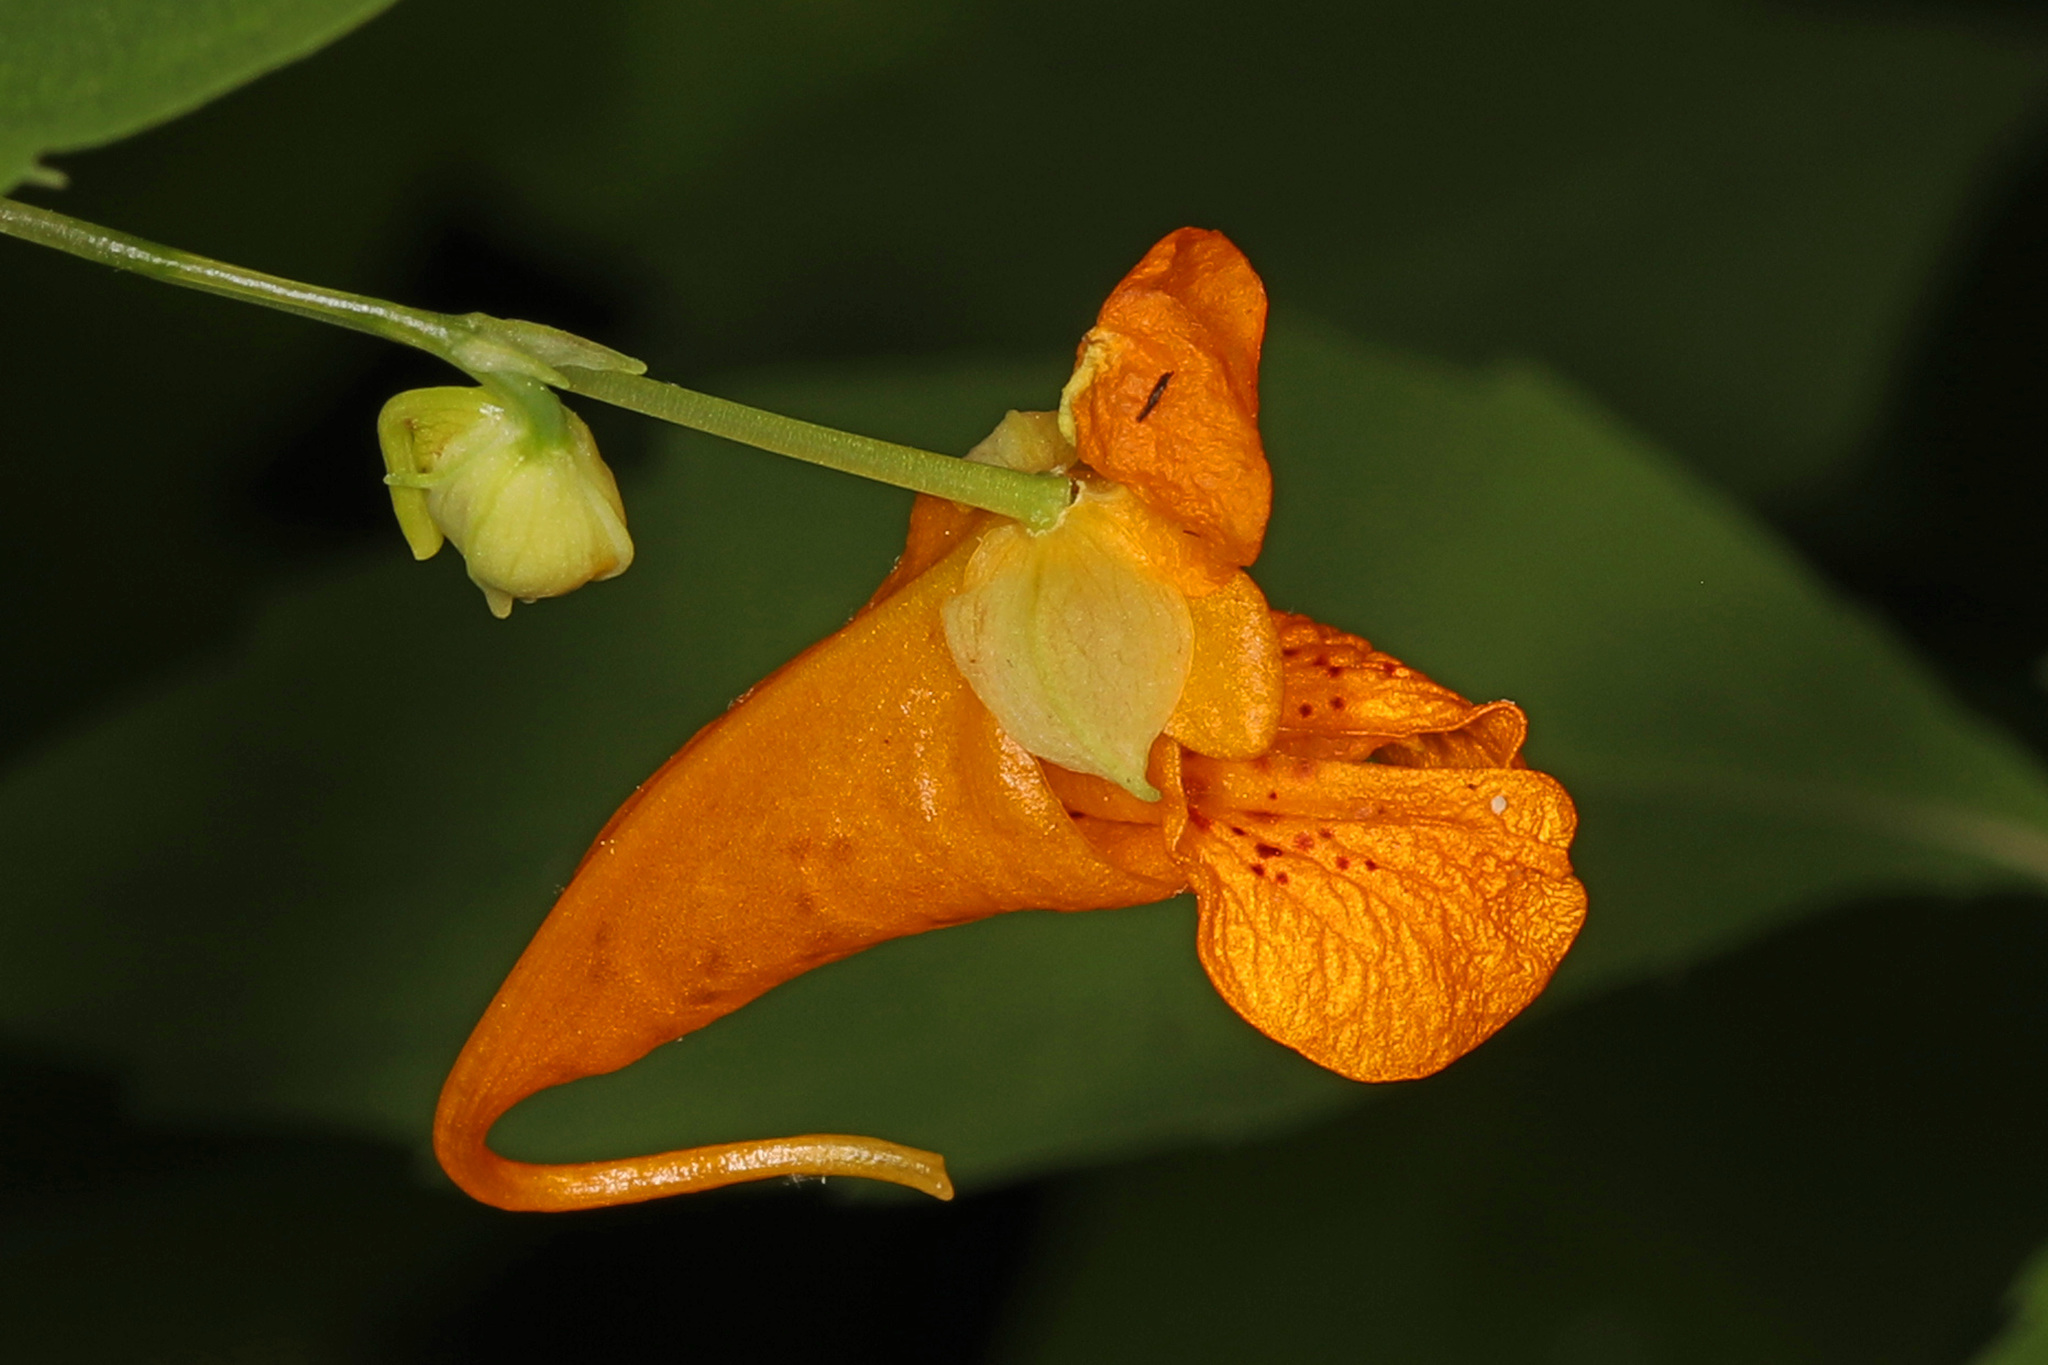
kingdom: Plantae
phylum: Tracheophyta
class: Magnoliopsida
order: Ericales
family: Balsaminaceae
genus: Impatiens
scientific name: Impatiens capensis
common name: Orange balsam
